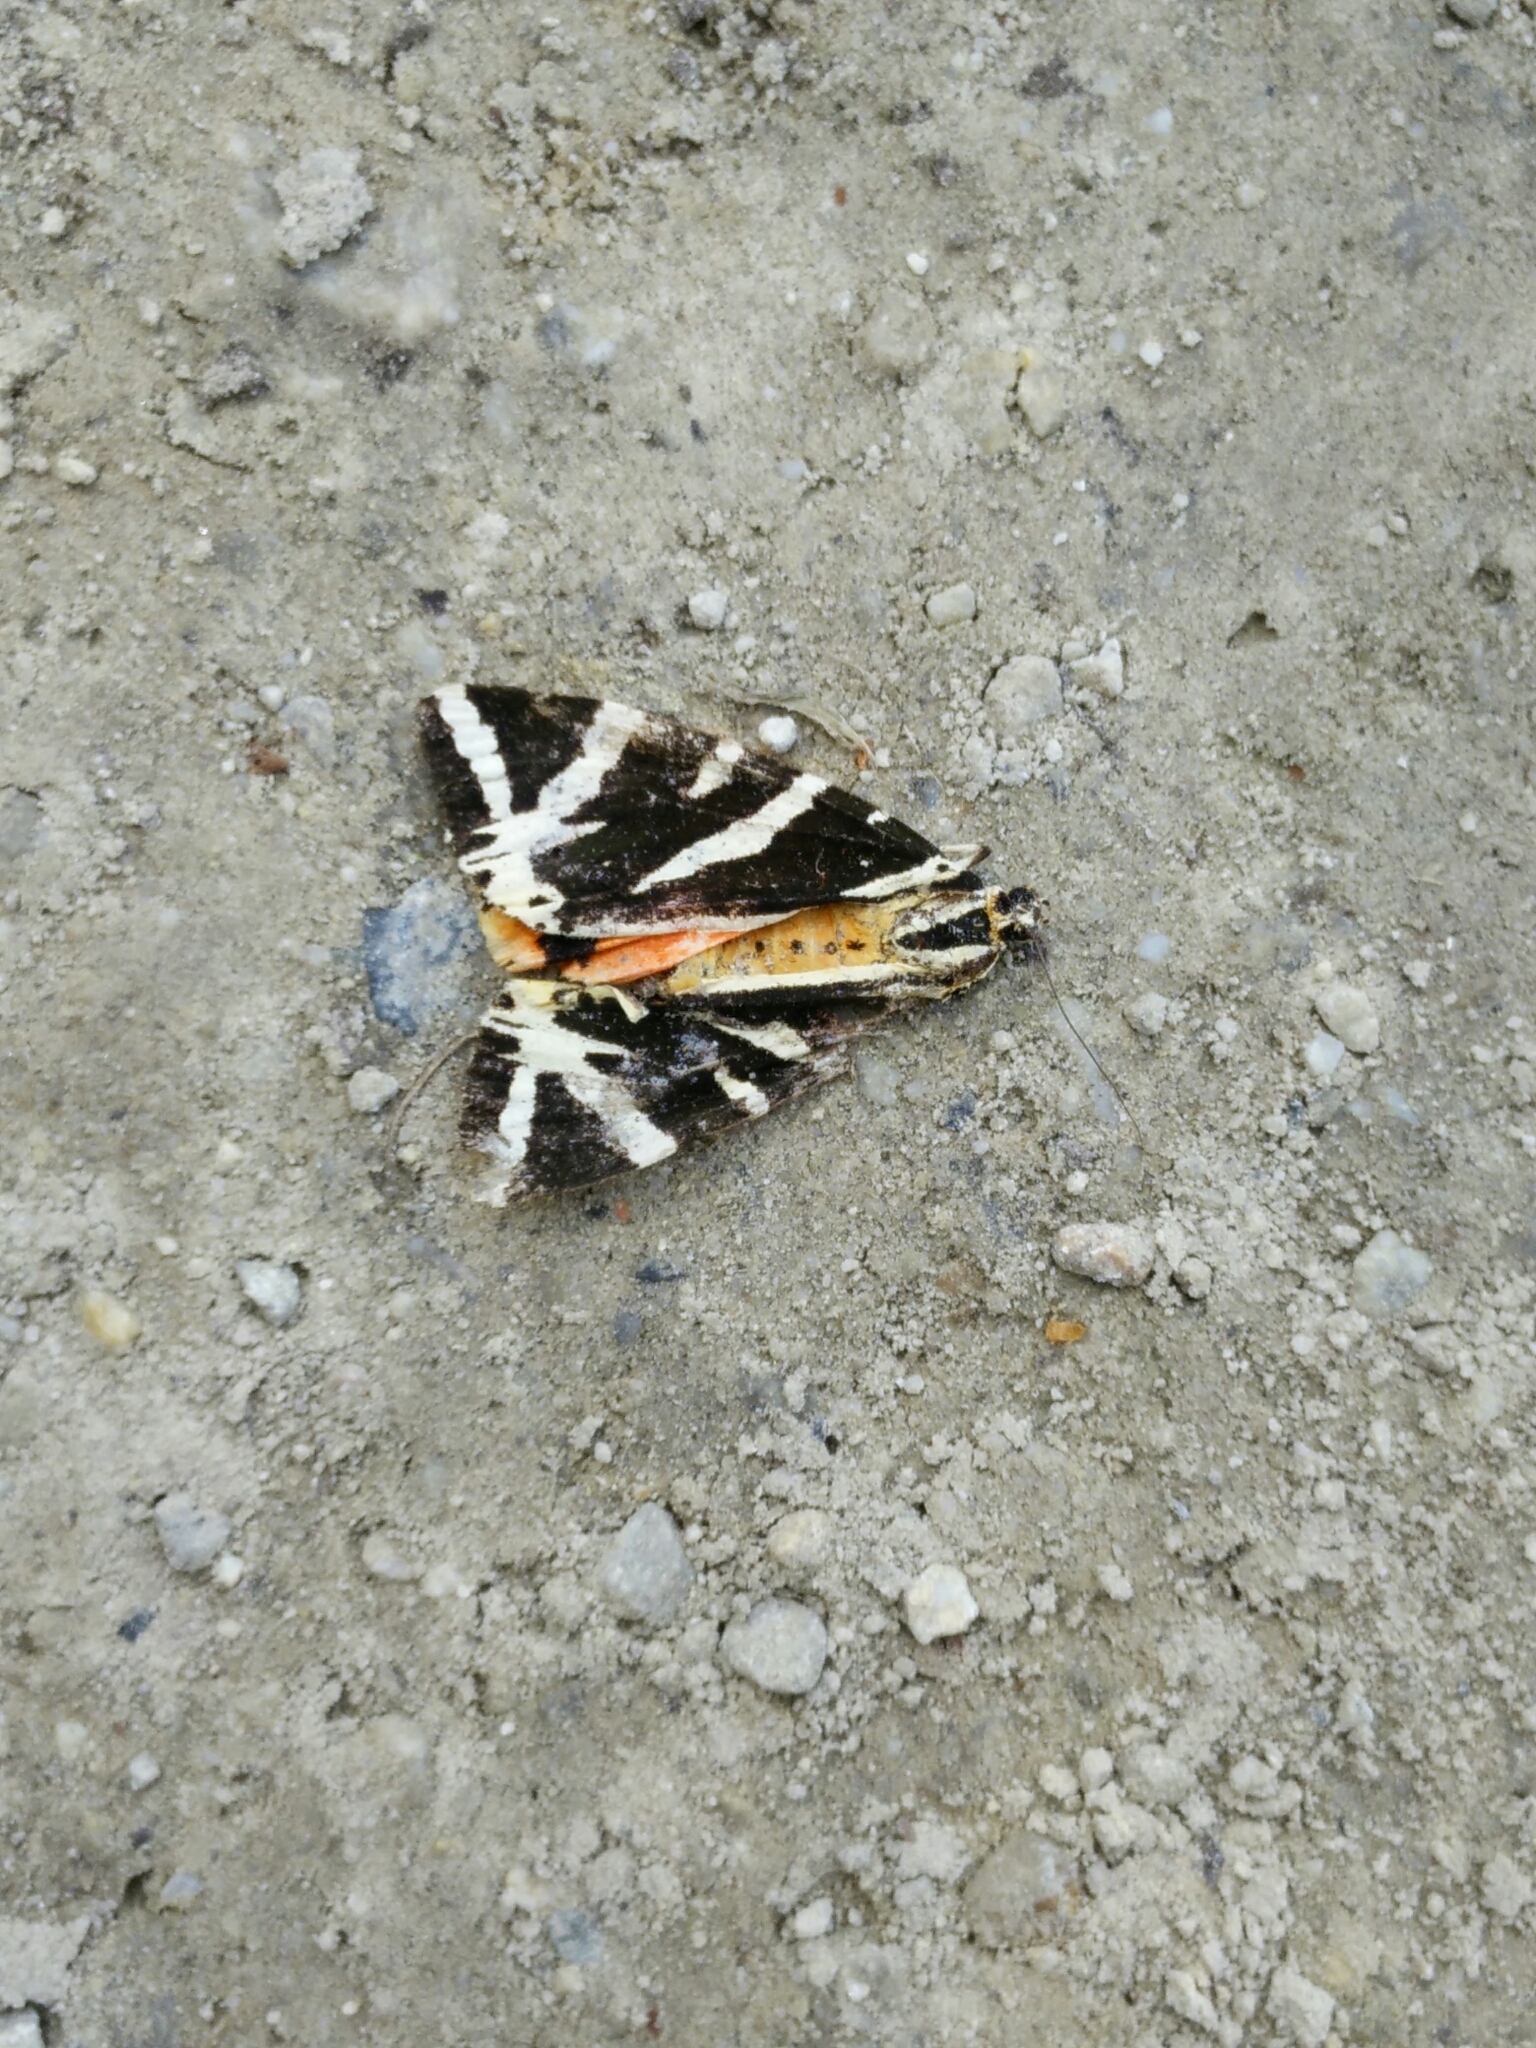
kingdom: Animalia
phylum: Arthropoda
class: Insecta
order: Lepidoptera
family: Erebidae
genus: Euplagia
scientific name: Euplagia quadripunctaria
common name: Jersey tiger
